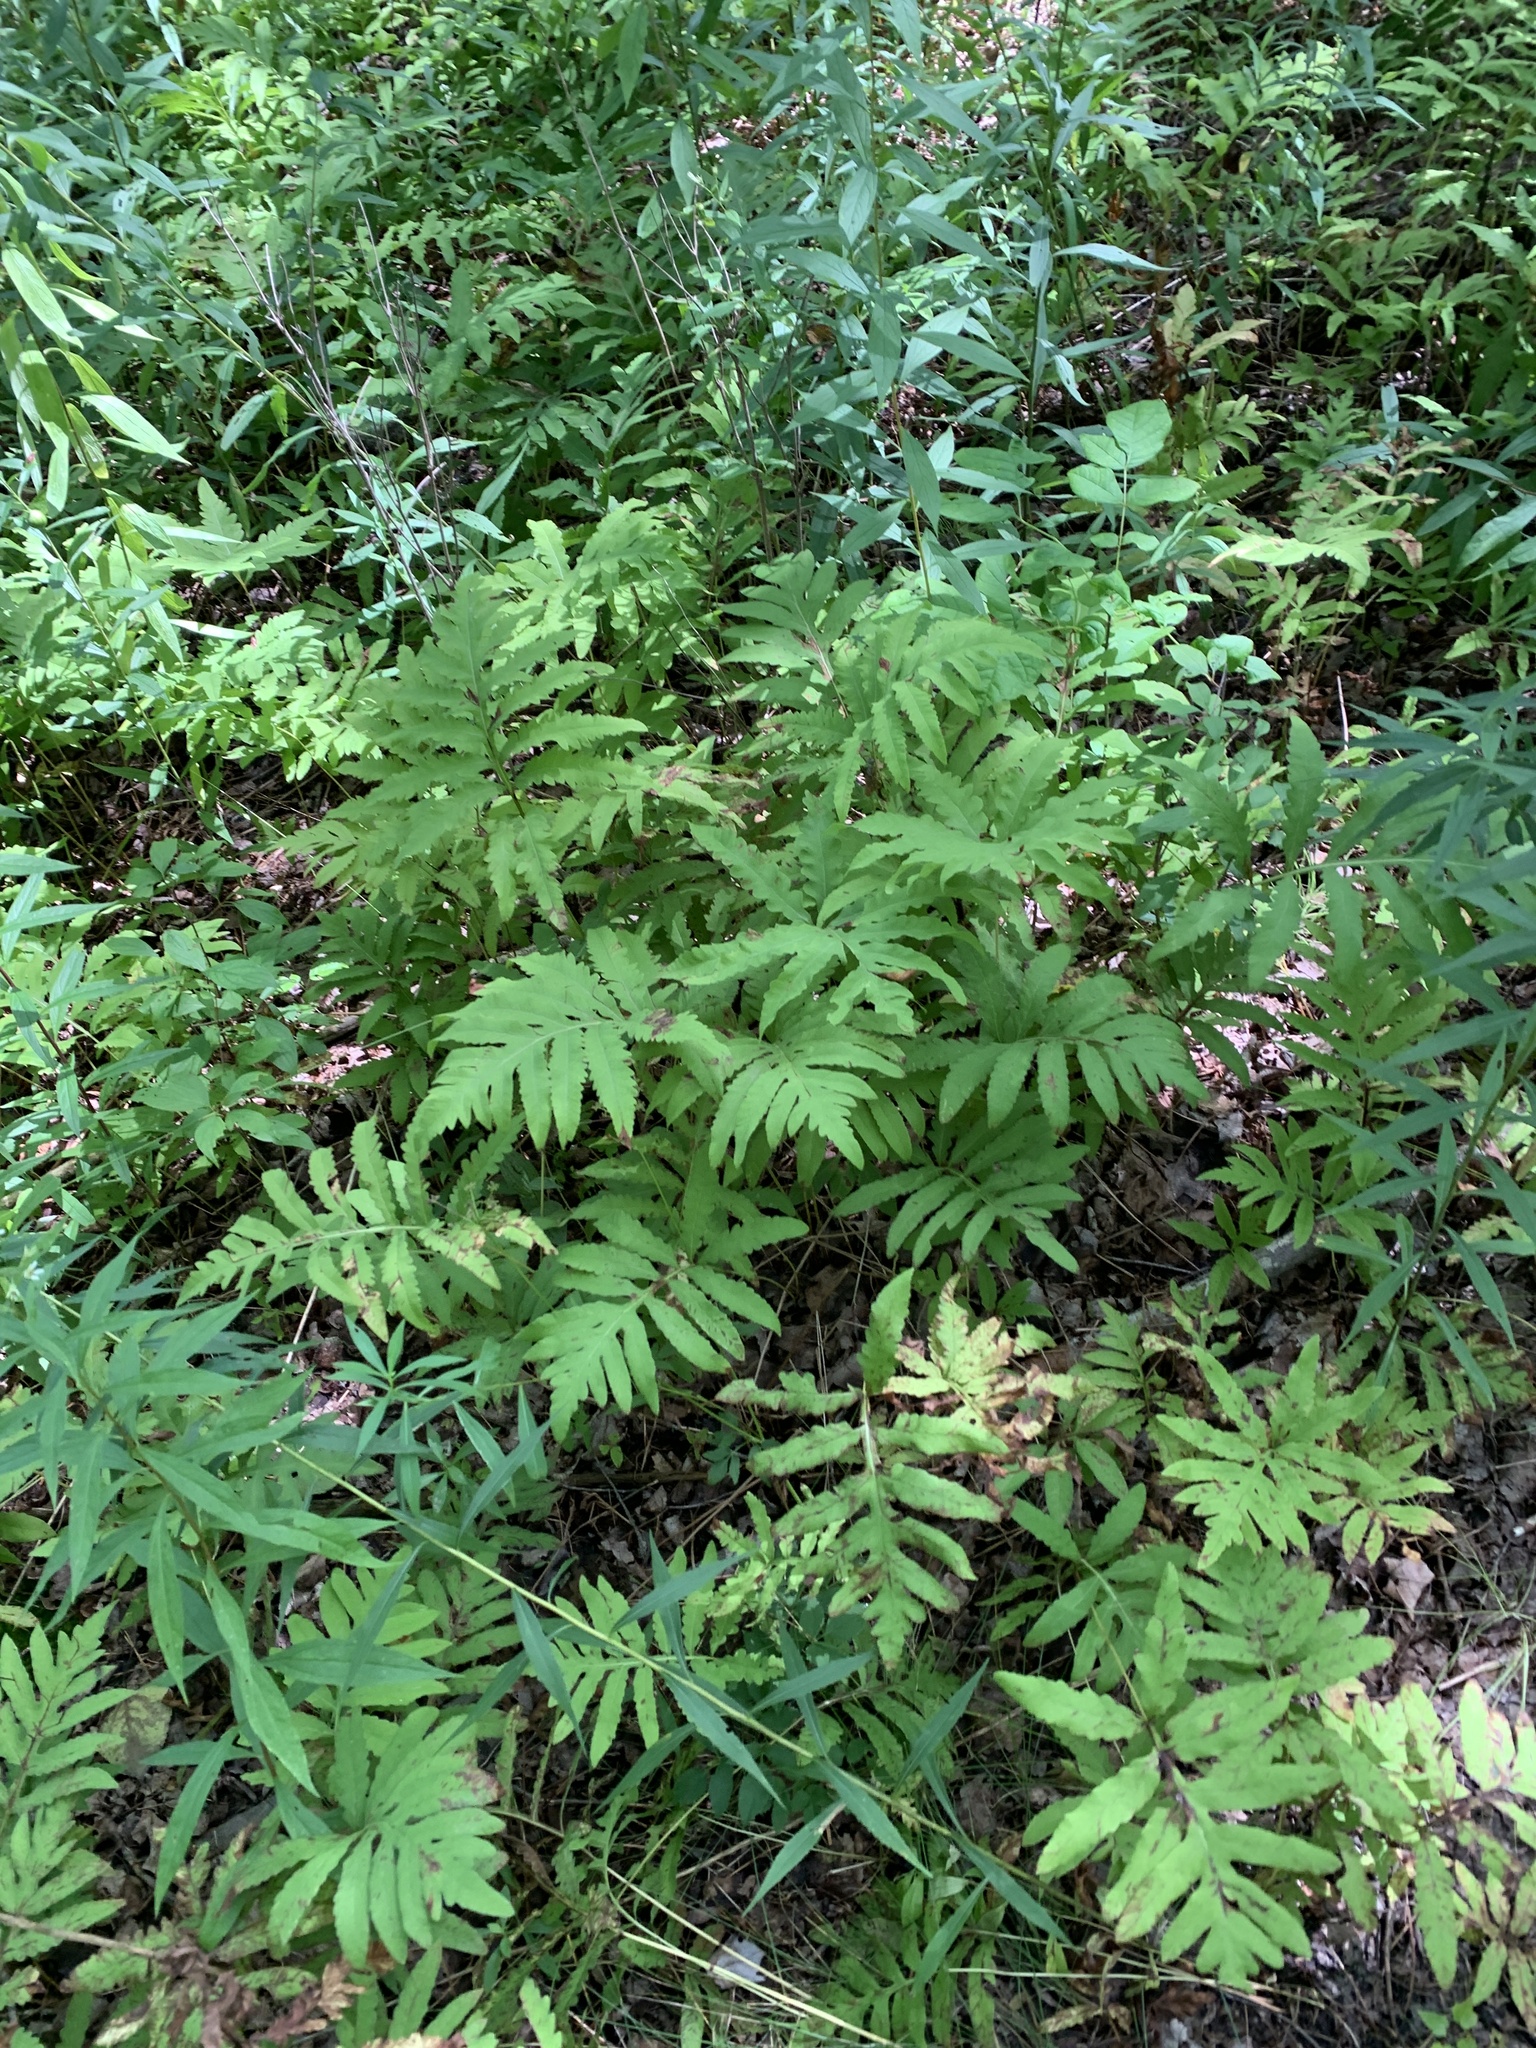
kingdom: Plantae
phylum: Tracheophyta
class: Polypodiopsida
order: Polypodiales
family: Onocleaceae
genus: Onoclea
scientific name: Onoclea sensibilis
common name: Sensitive fern
